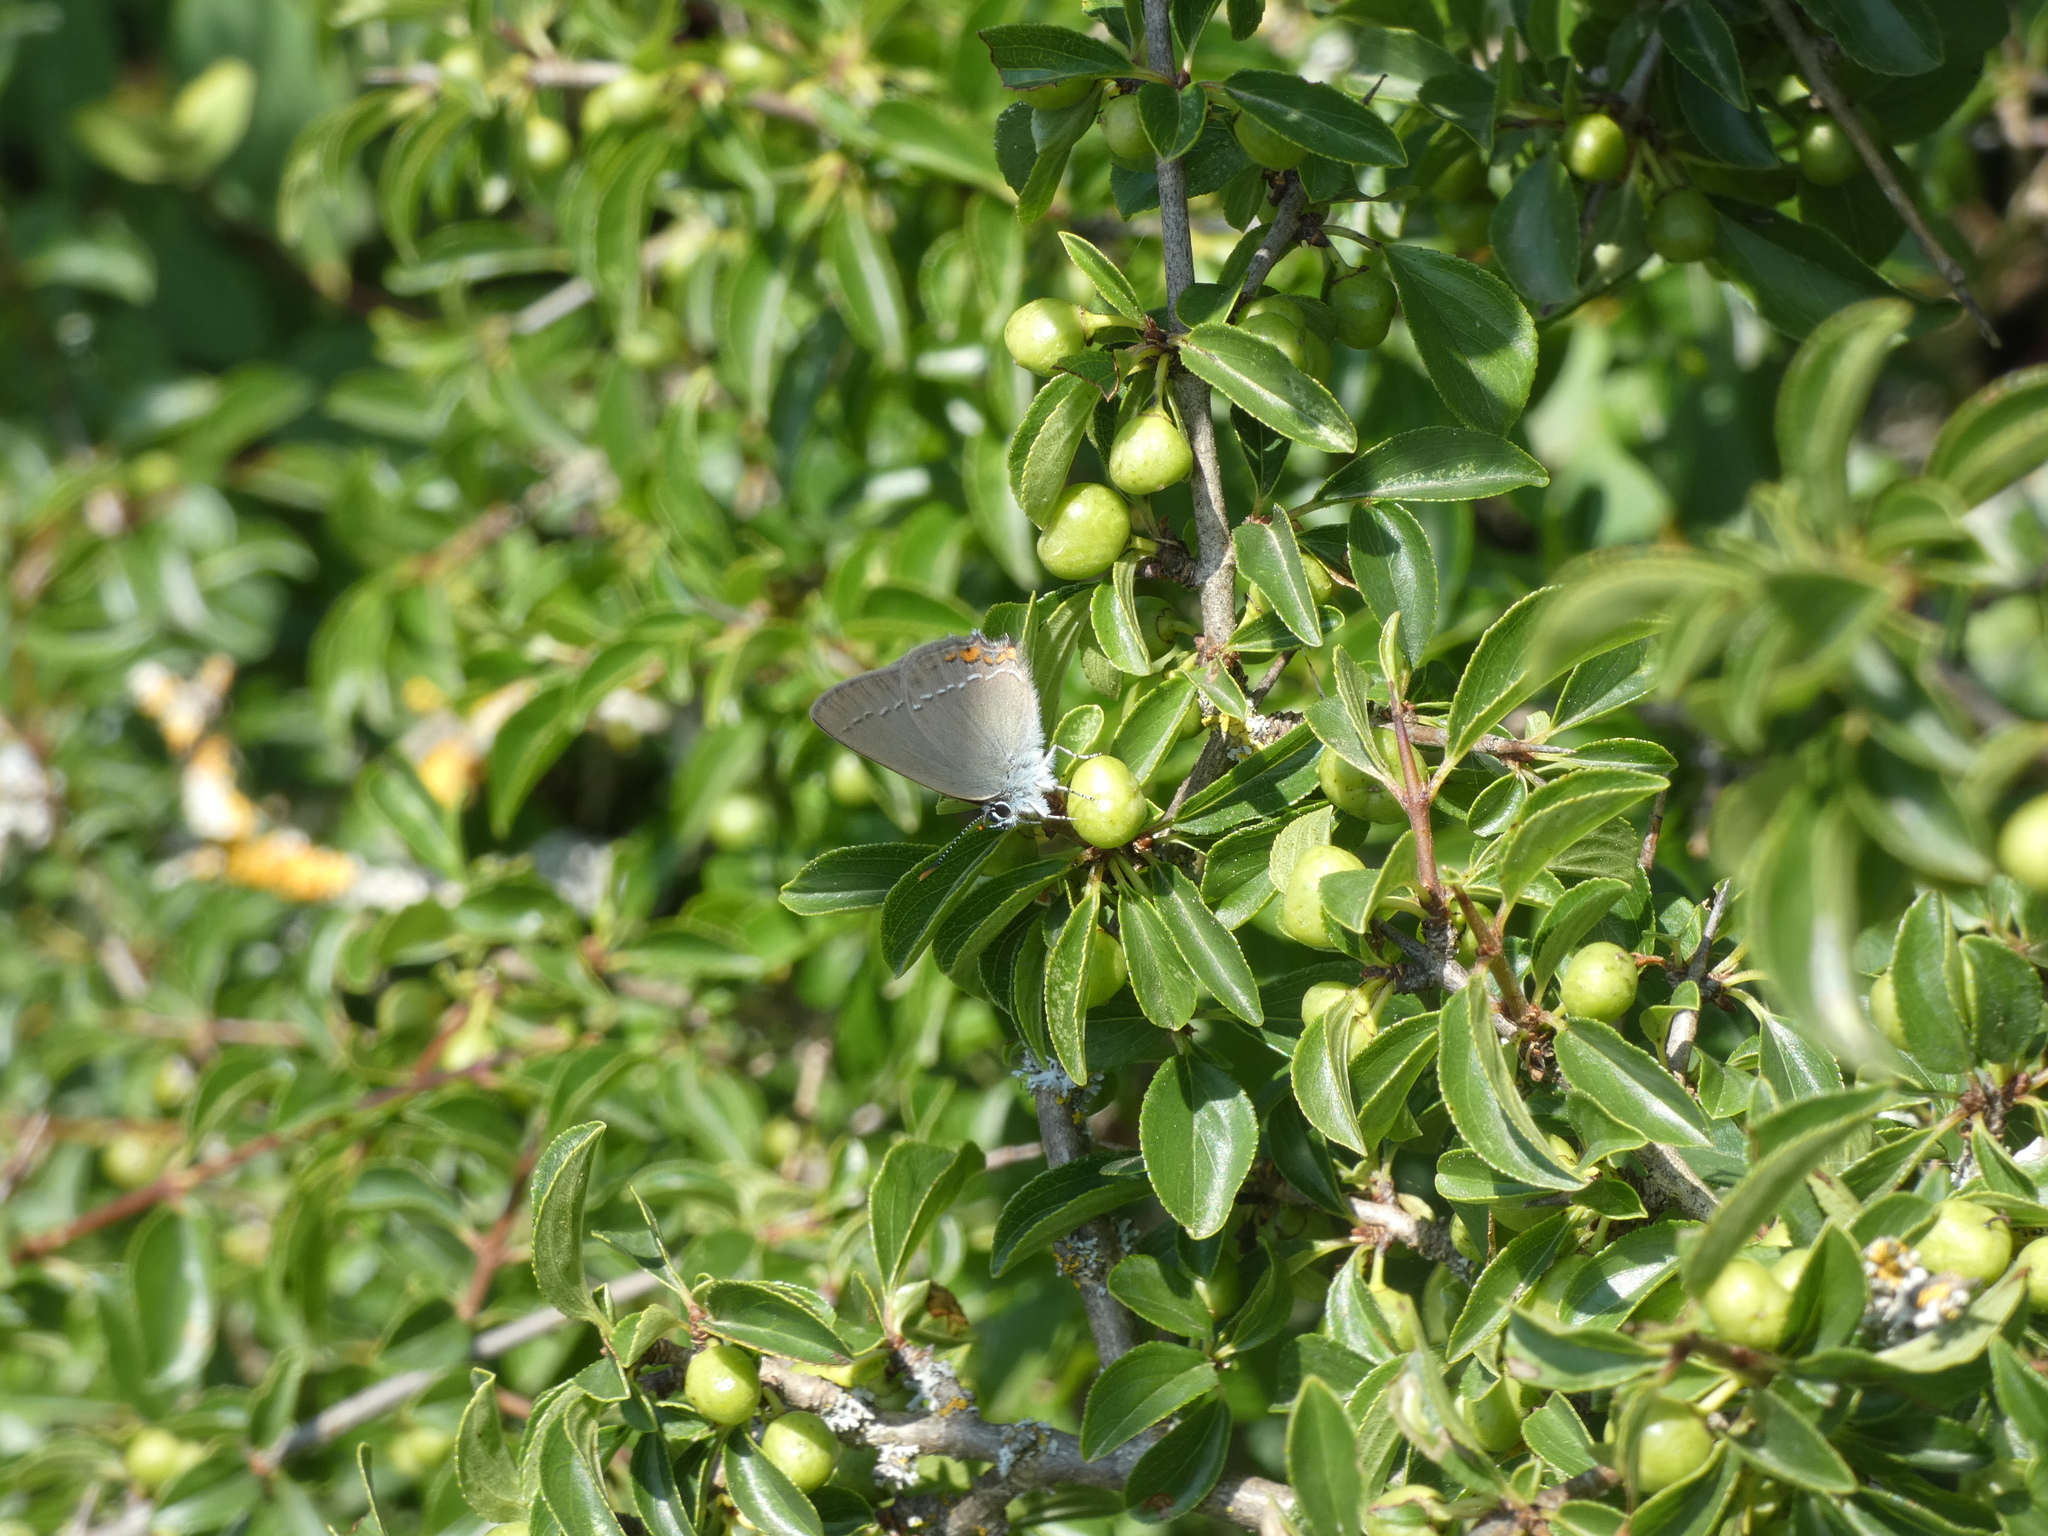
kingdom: Animalia
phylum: Arthropoda
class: Insecta
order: Lepidoptera
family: Lycaenidae
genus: Strymon
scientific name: Strymon acaciae
